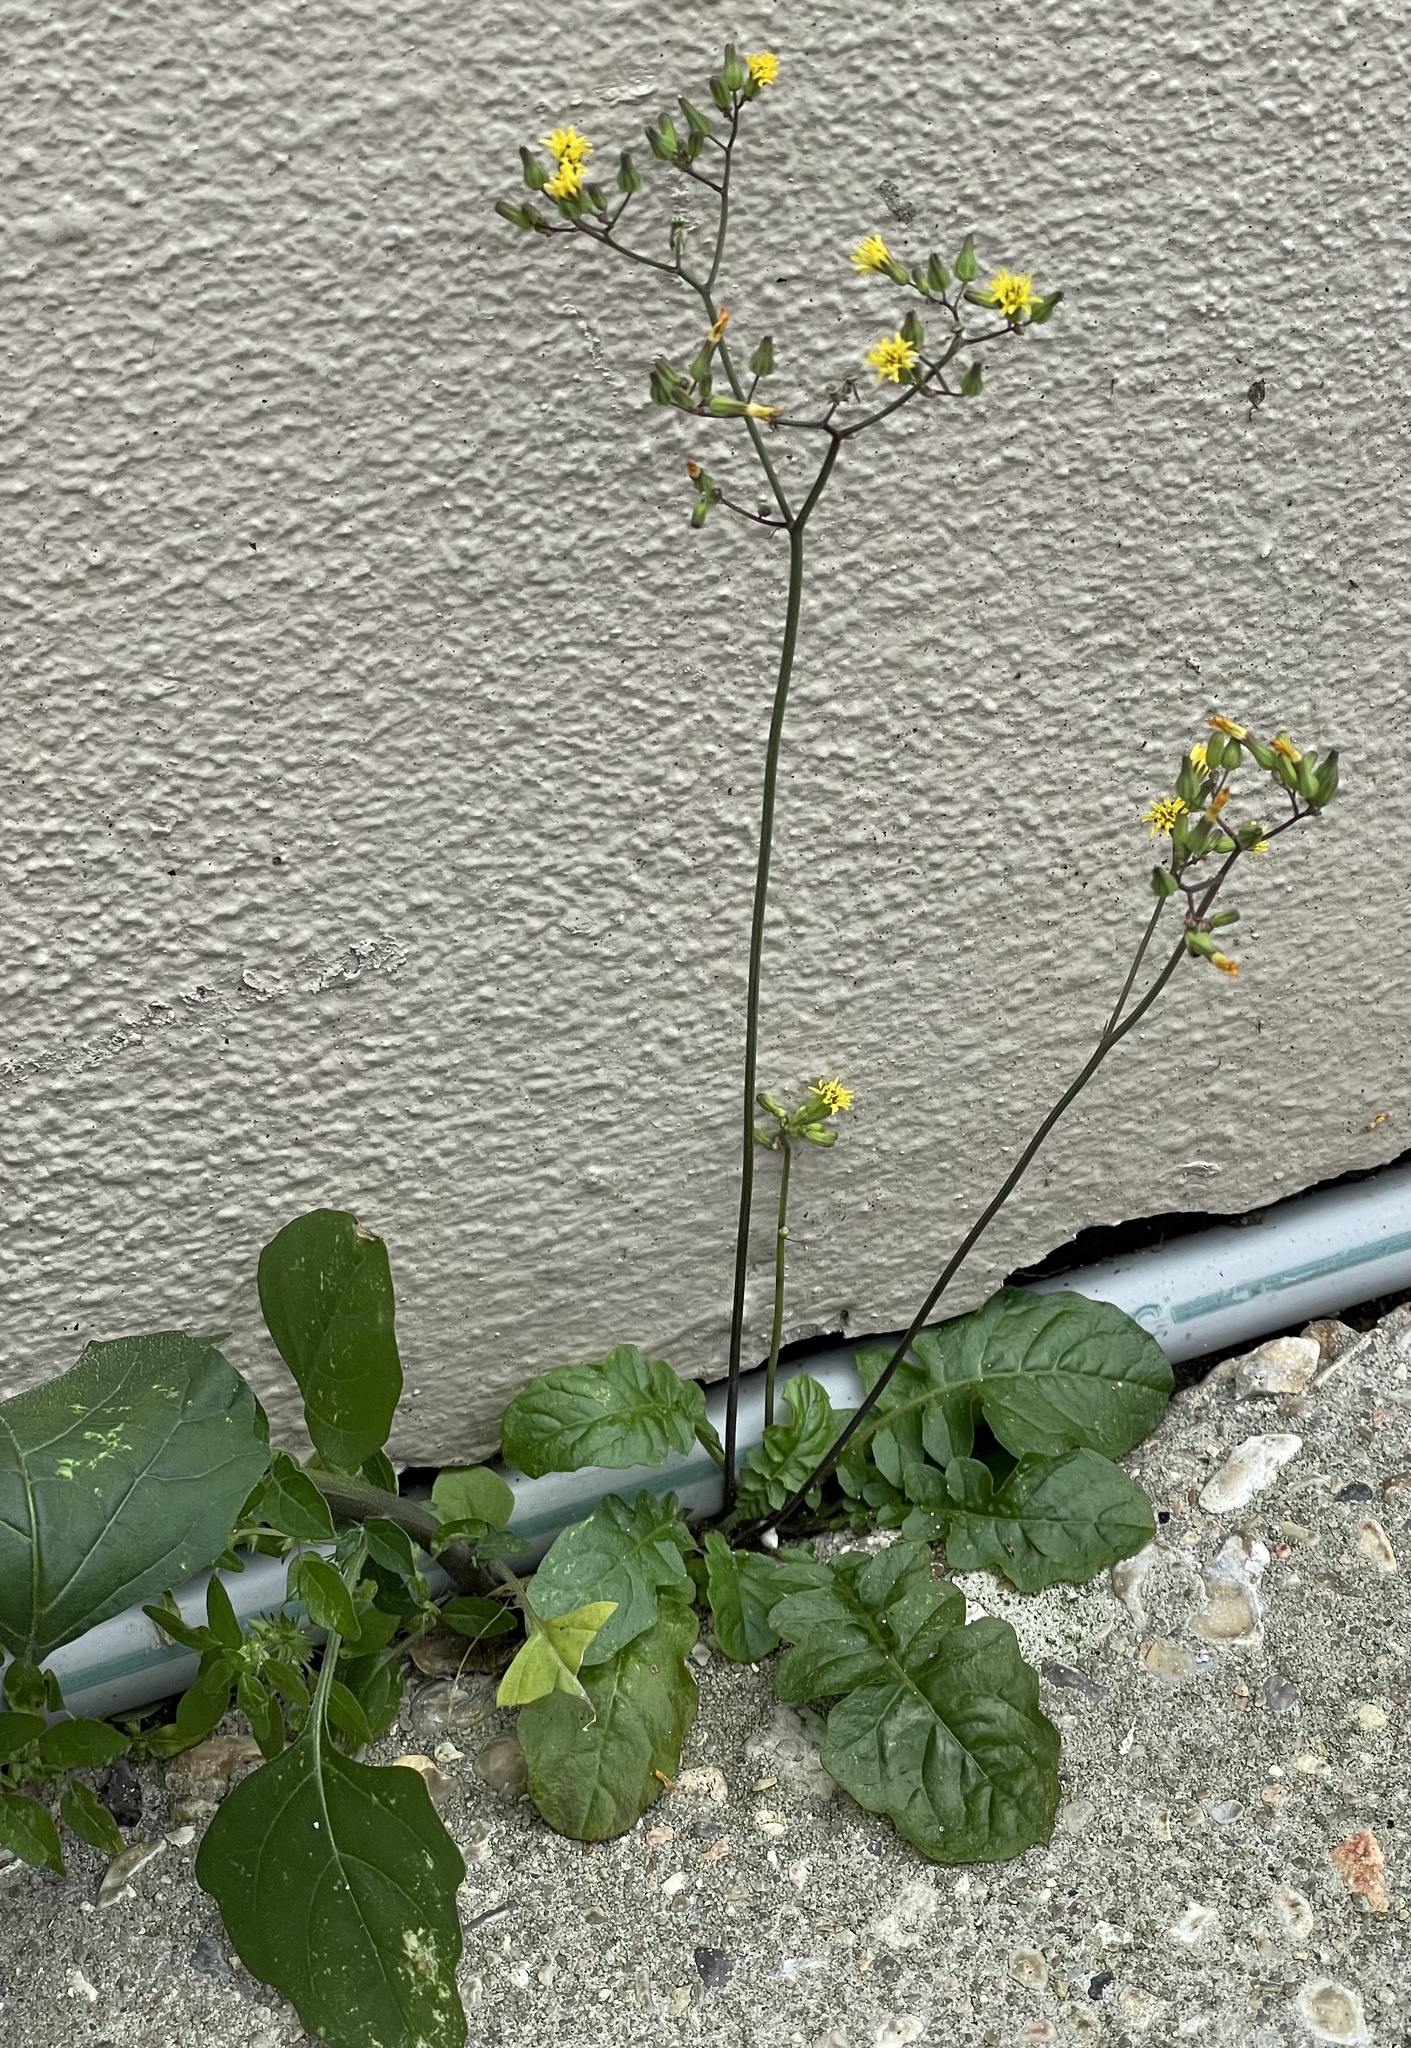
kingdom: Plantae
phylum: Tracheophyta
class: Magnoliopsida
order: Asterales
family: Asteraceae
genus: Youngia
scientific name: Youngia japonica
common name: Oriental false hawksbeard
